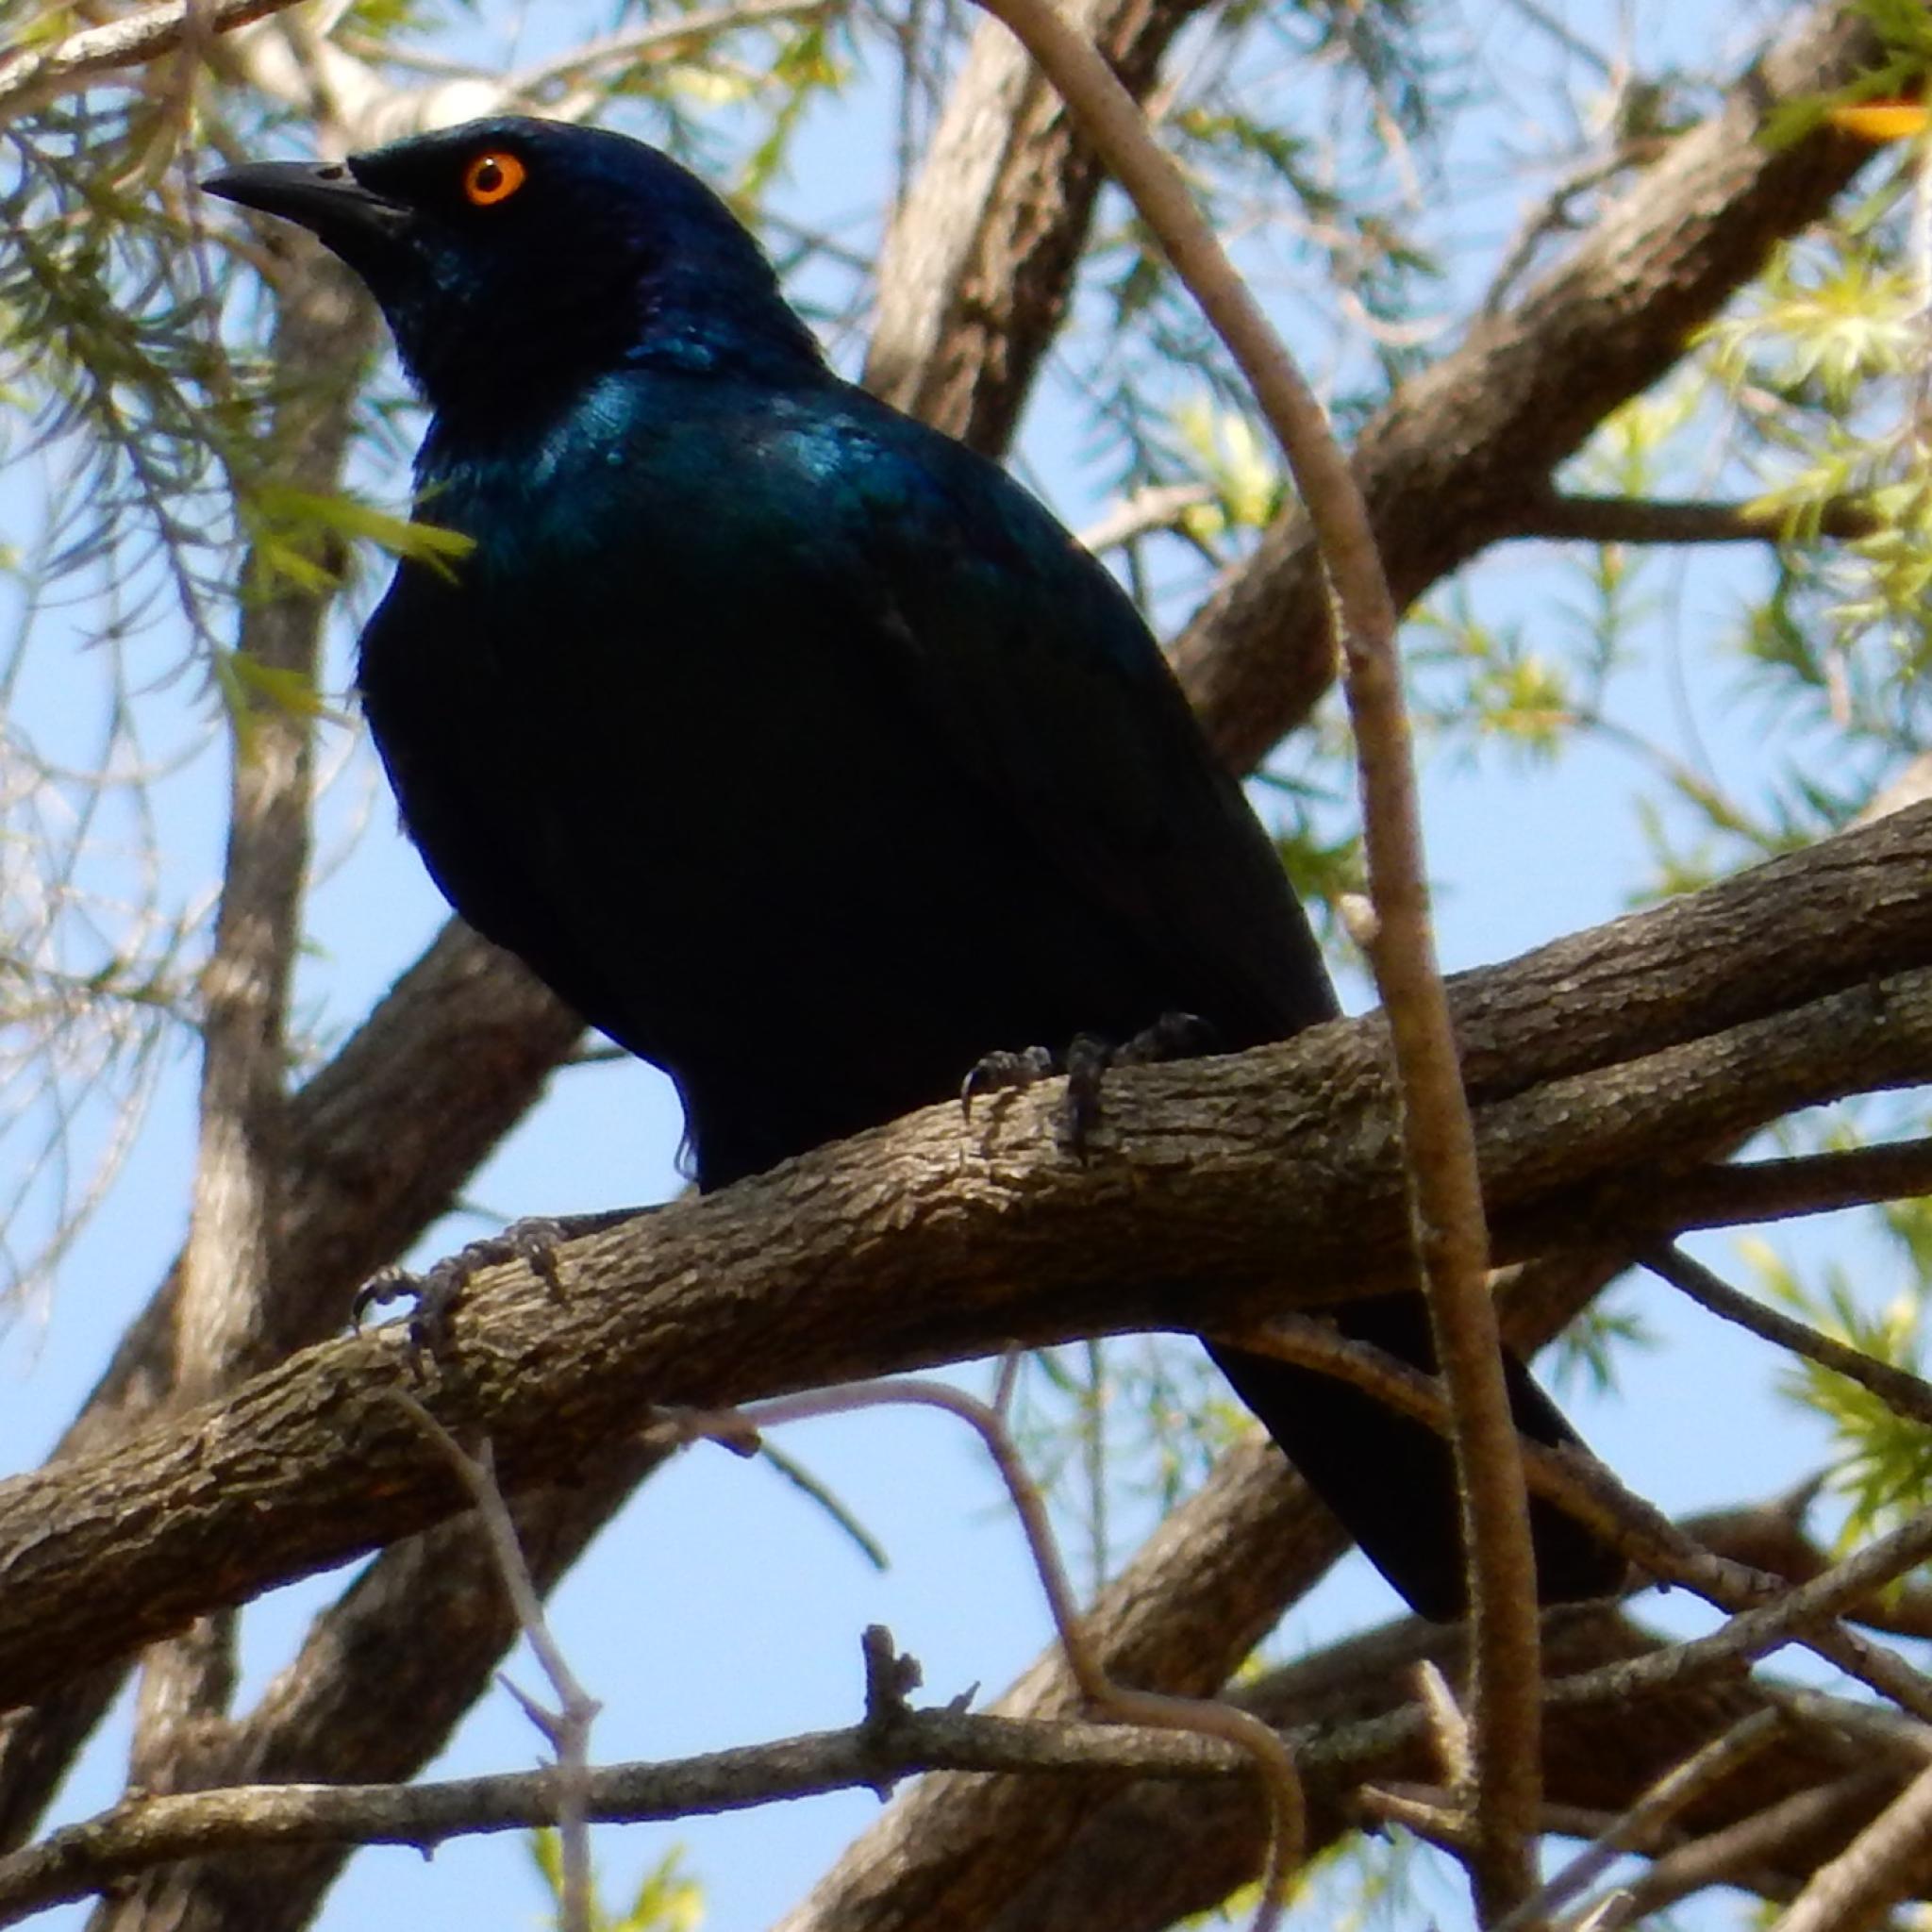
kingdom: Animalia
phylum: Chordata
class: Aves
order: Passeriformes
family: Sturnidae
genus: Lamprotornis
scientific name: Lamprotornis nitens
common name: Cape starling
